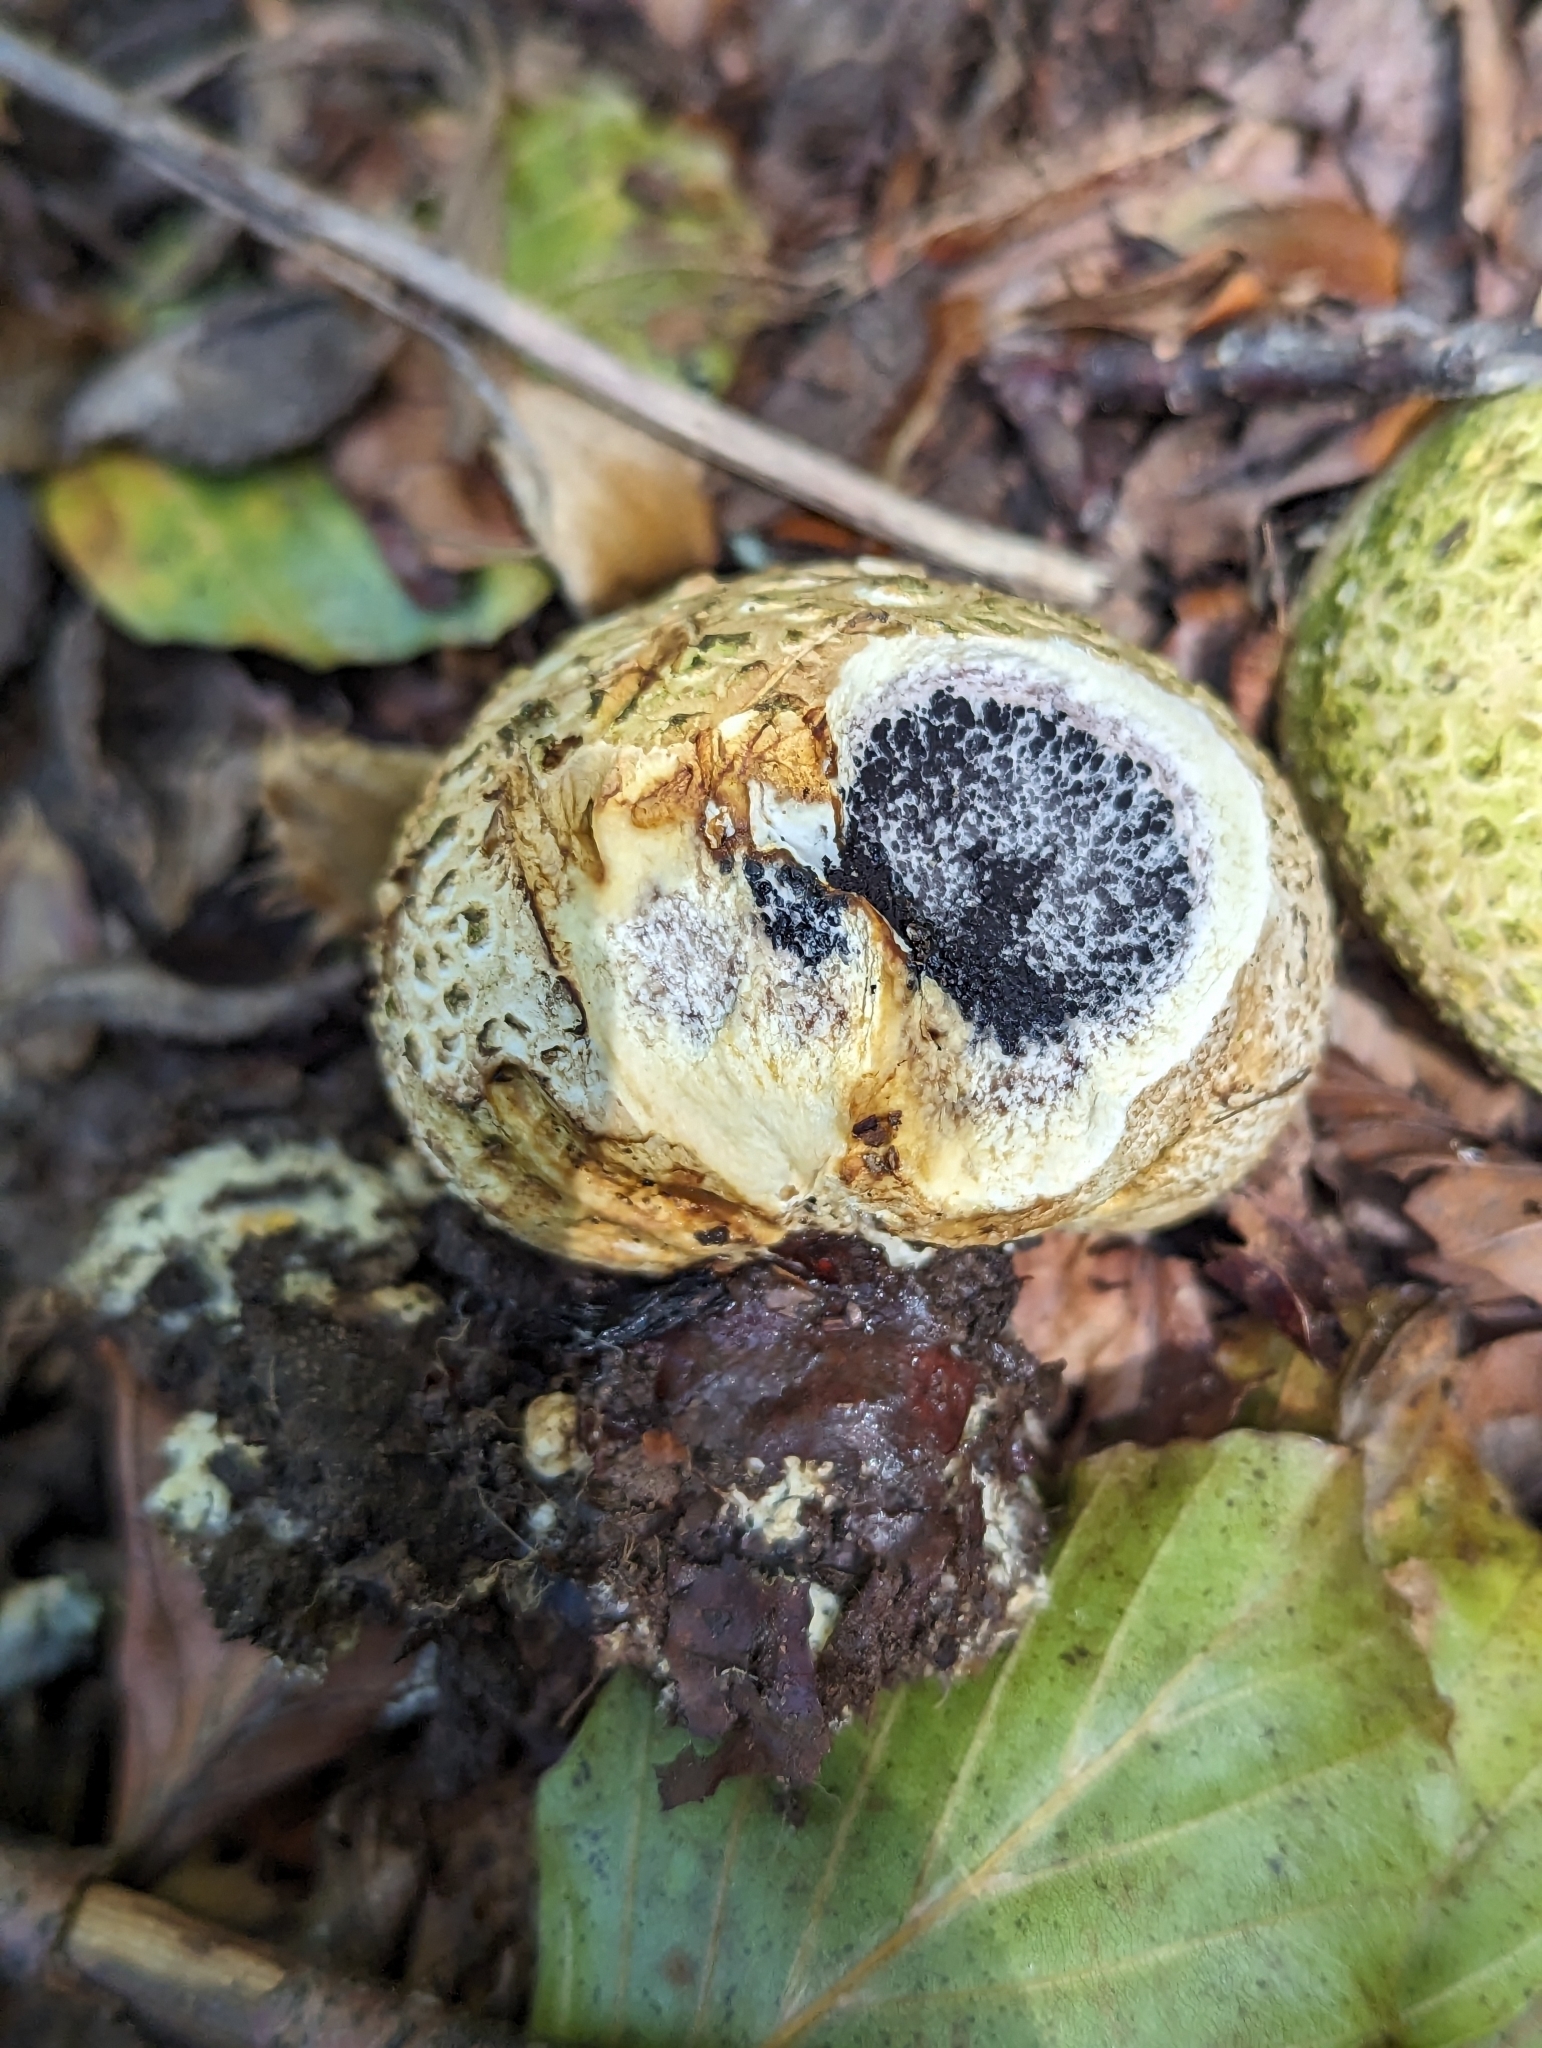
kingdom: Fungi
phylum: Basidiomycota
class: Agaricomycetes
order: Boletales
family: Sclerodermataceae
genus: Scleroderma
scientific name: Scleroderma citrinum
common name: Common earthball
